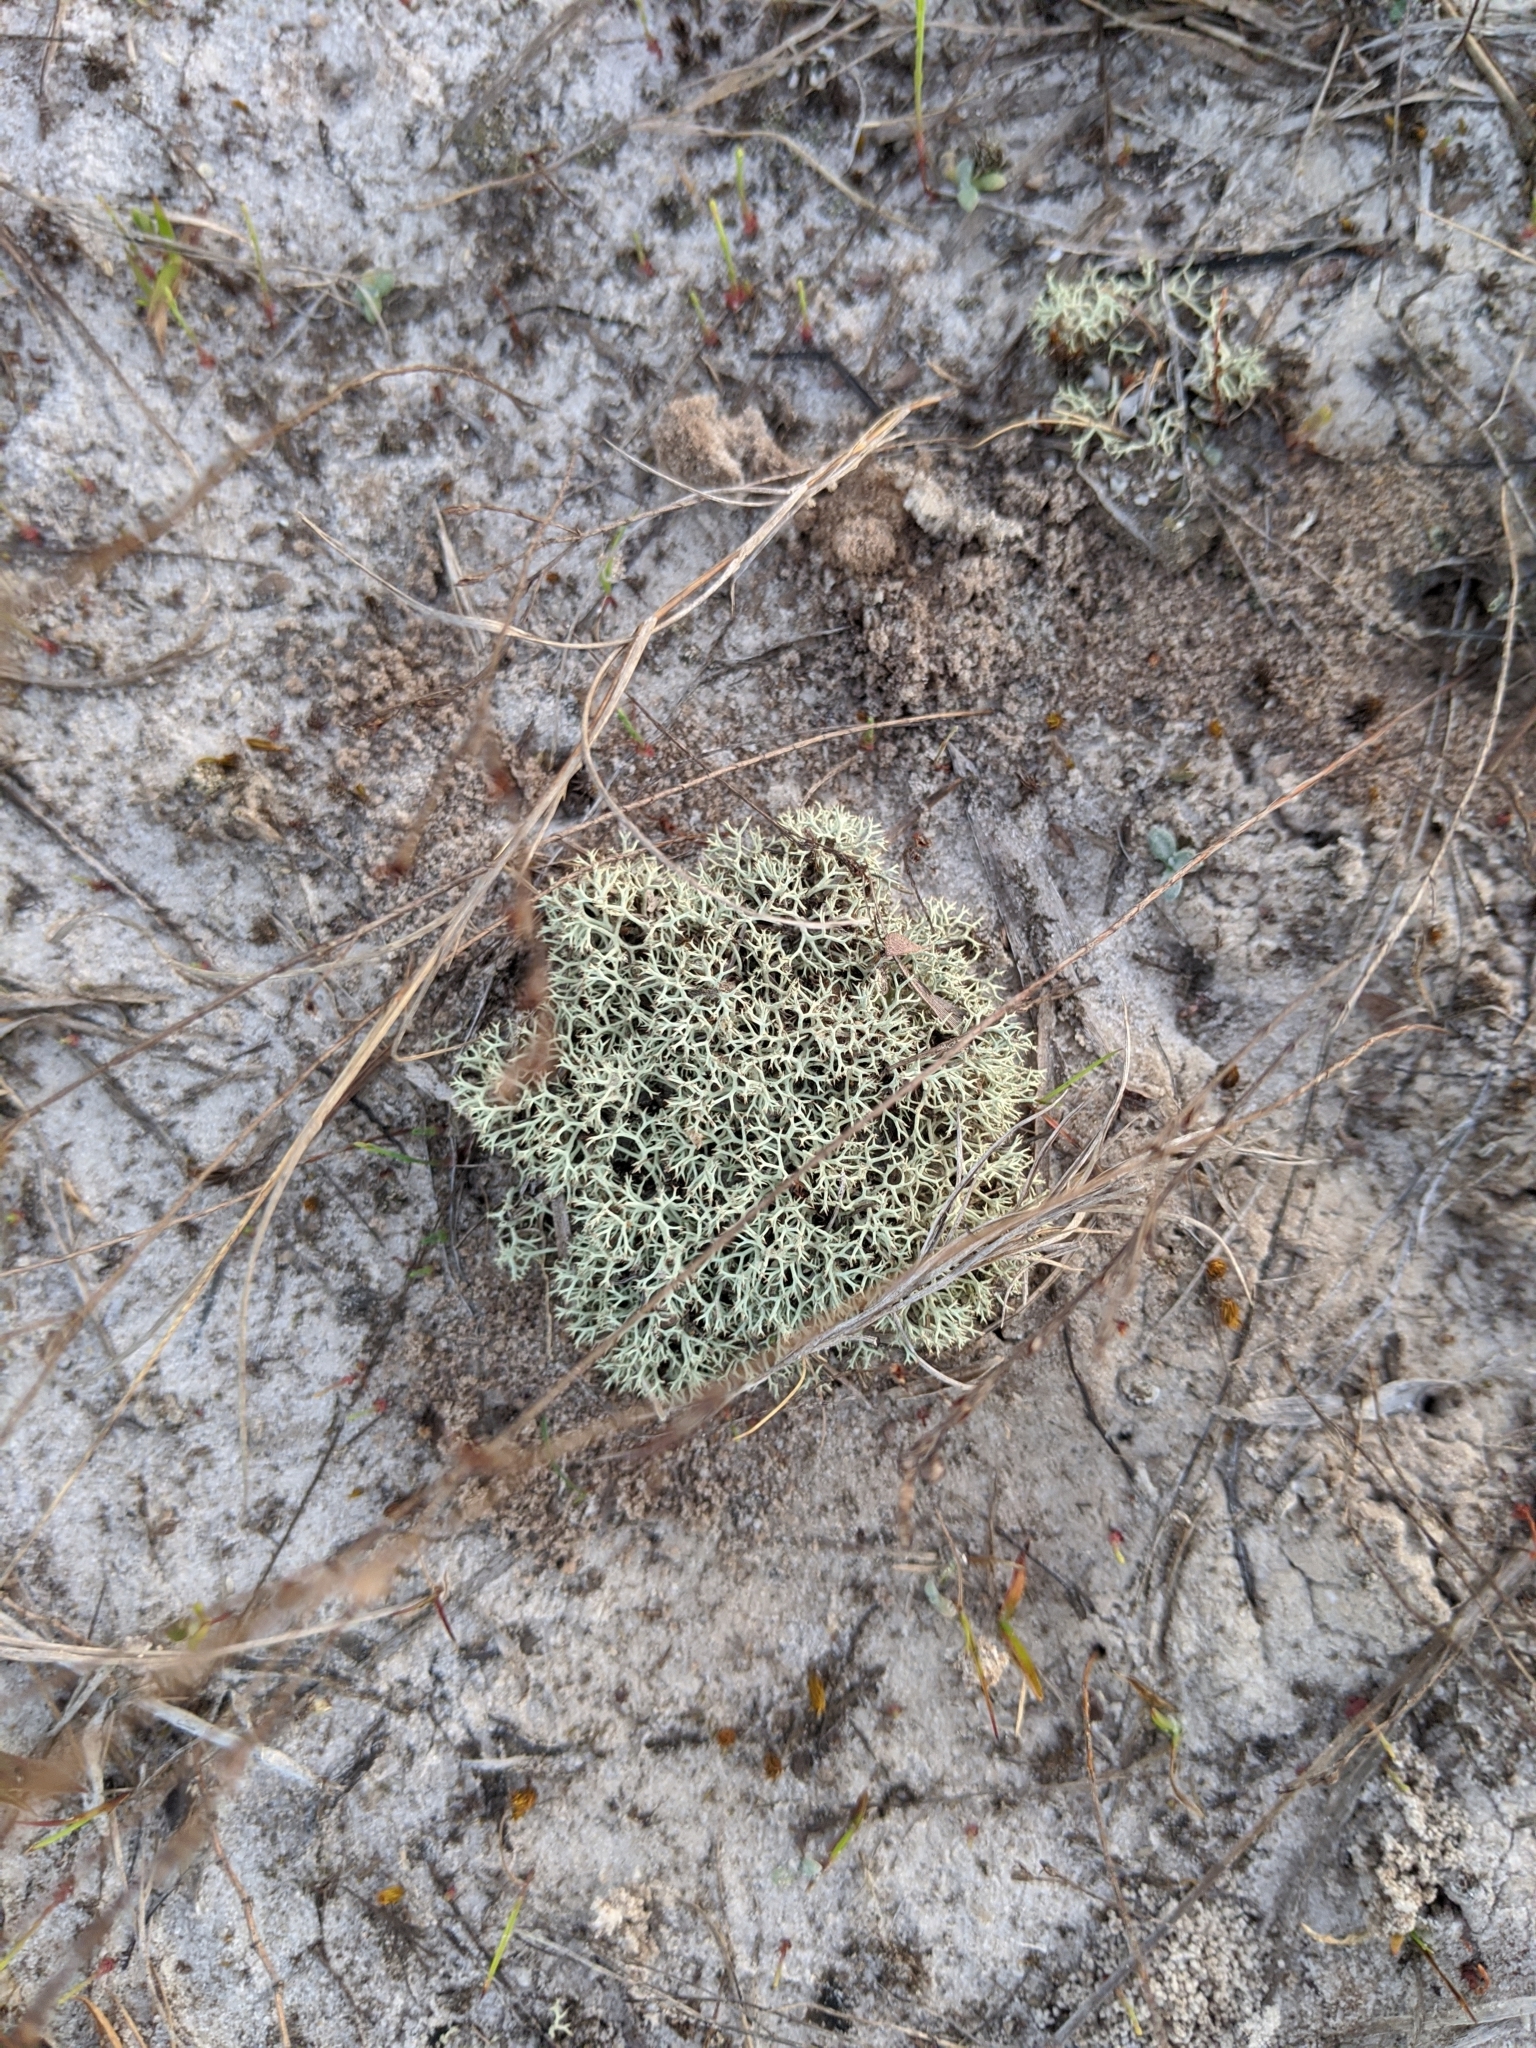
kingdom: Fungi
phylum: Ascomycota
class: Lecanoromycetes
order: Lecanorales
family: Cladoniaceae
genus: Cladonia
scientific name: Cladonia evansii
